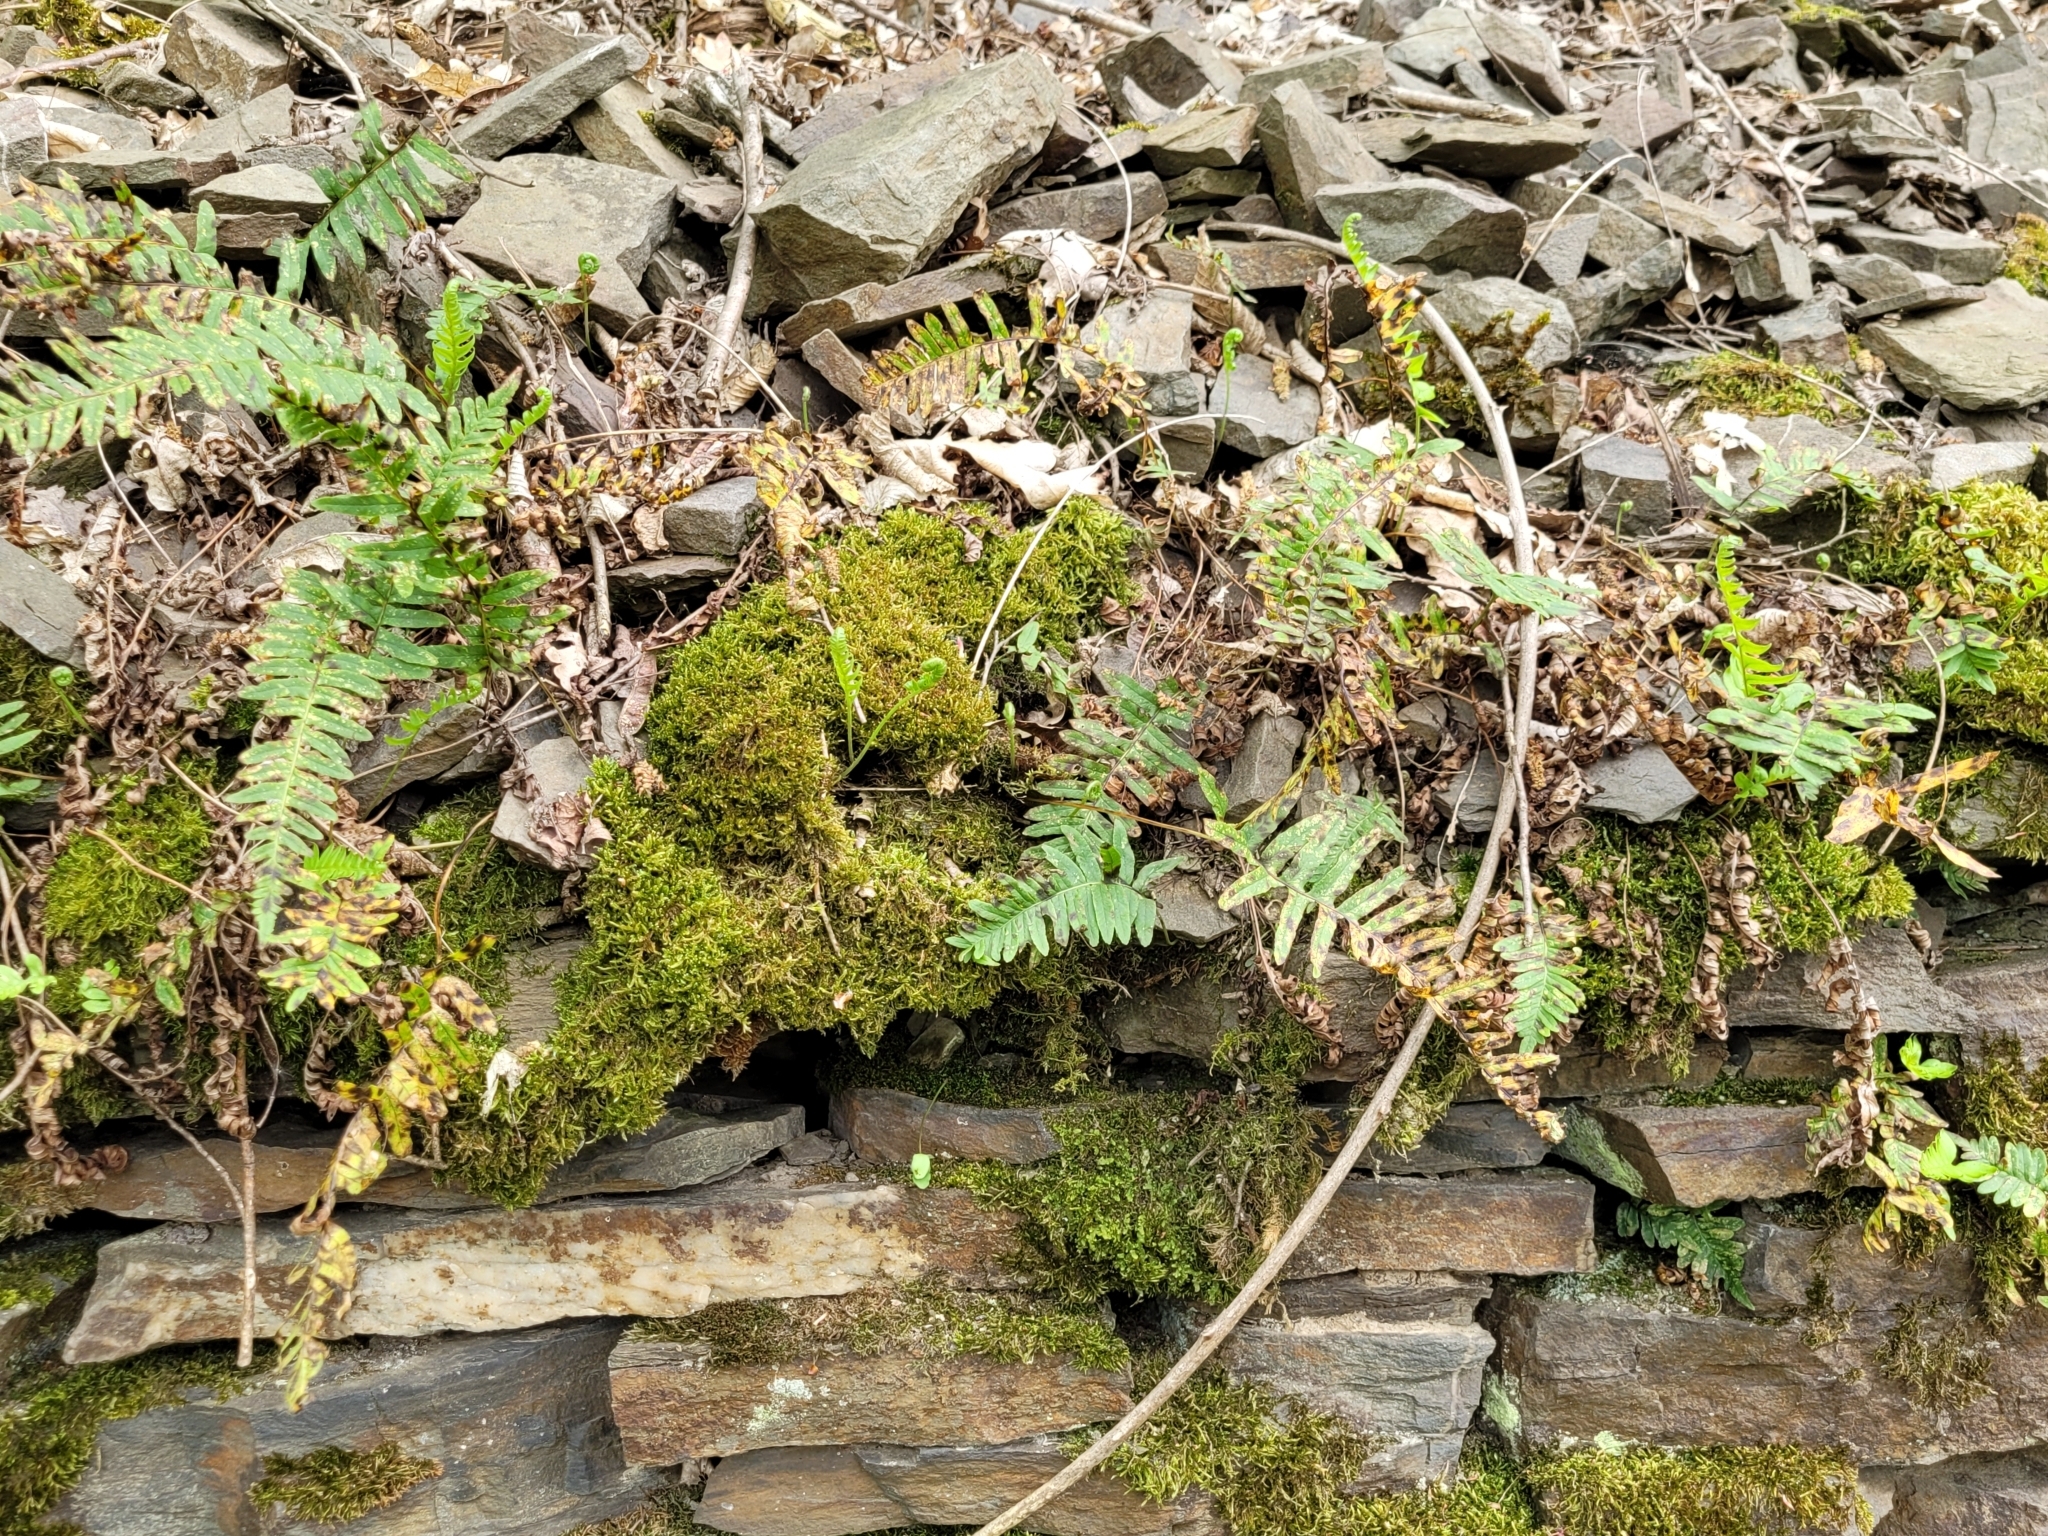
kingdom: Plantae
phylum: Tracheophyta
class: Polypodiopsida
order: Polypodiales
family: Polypodiaceae
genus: Polypodium
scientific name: Polypodium vulgare
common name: Common polypody
